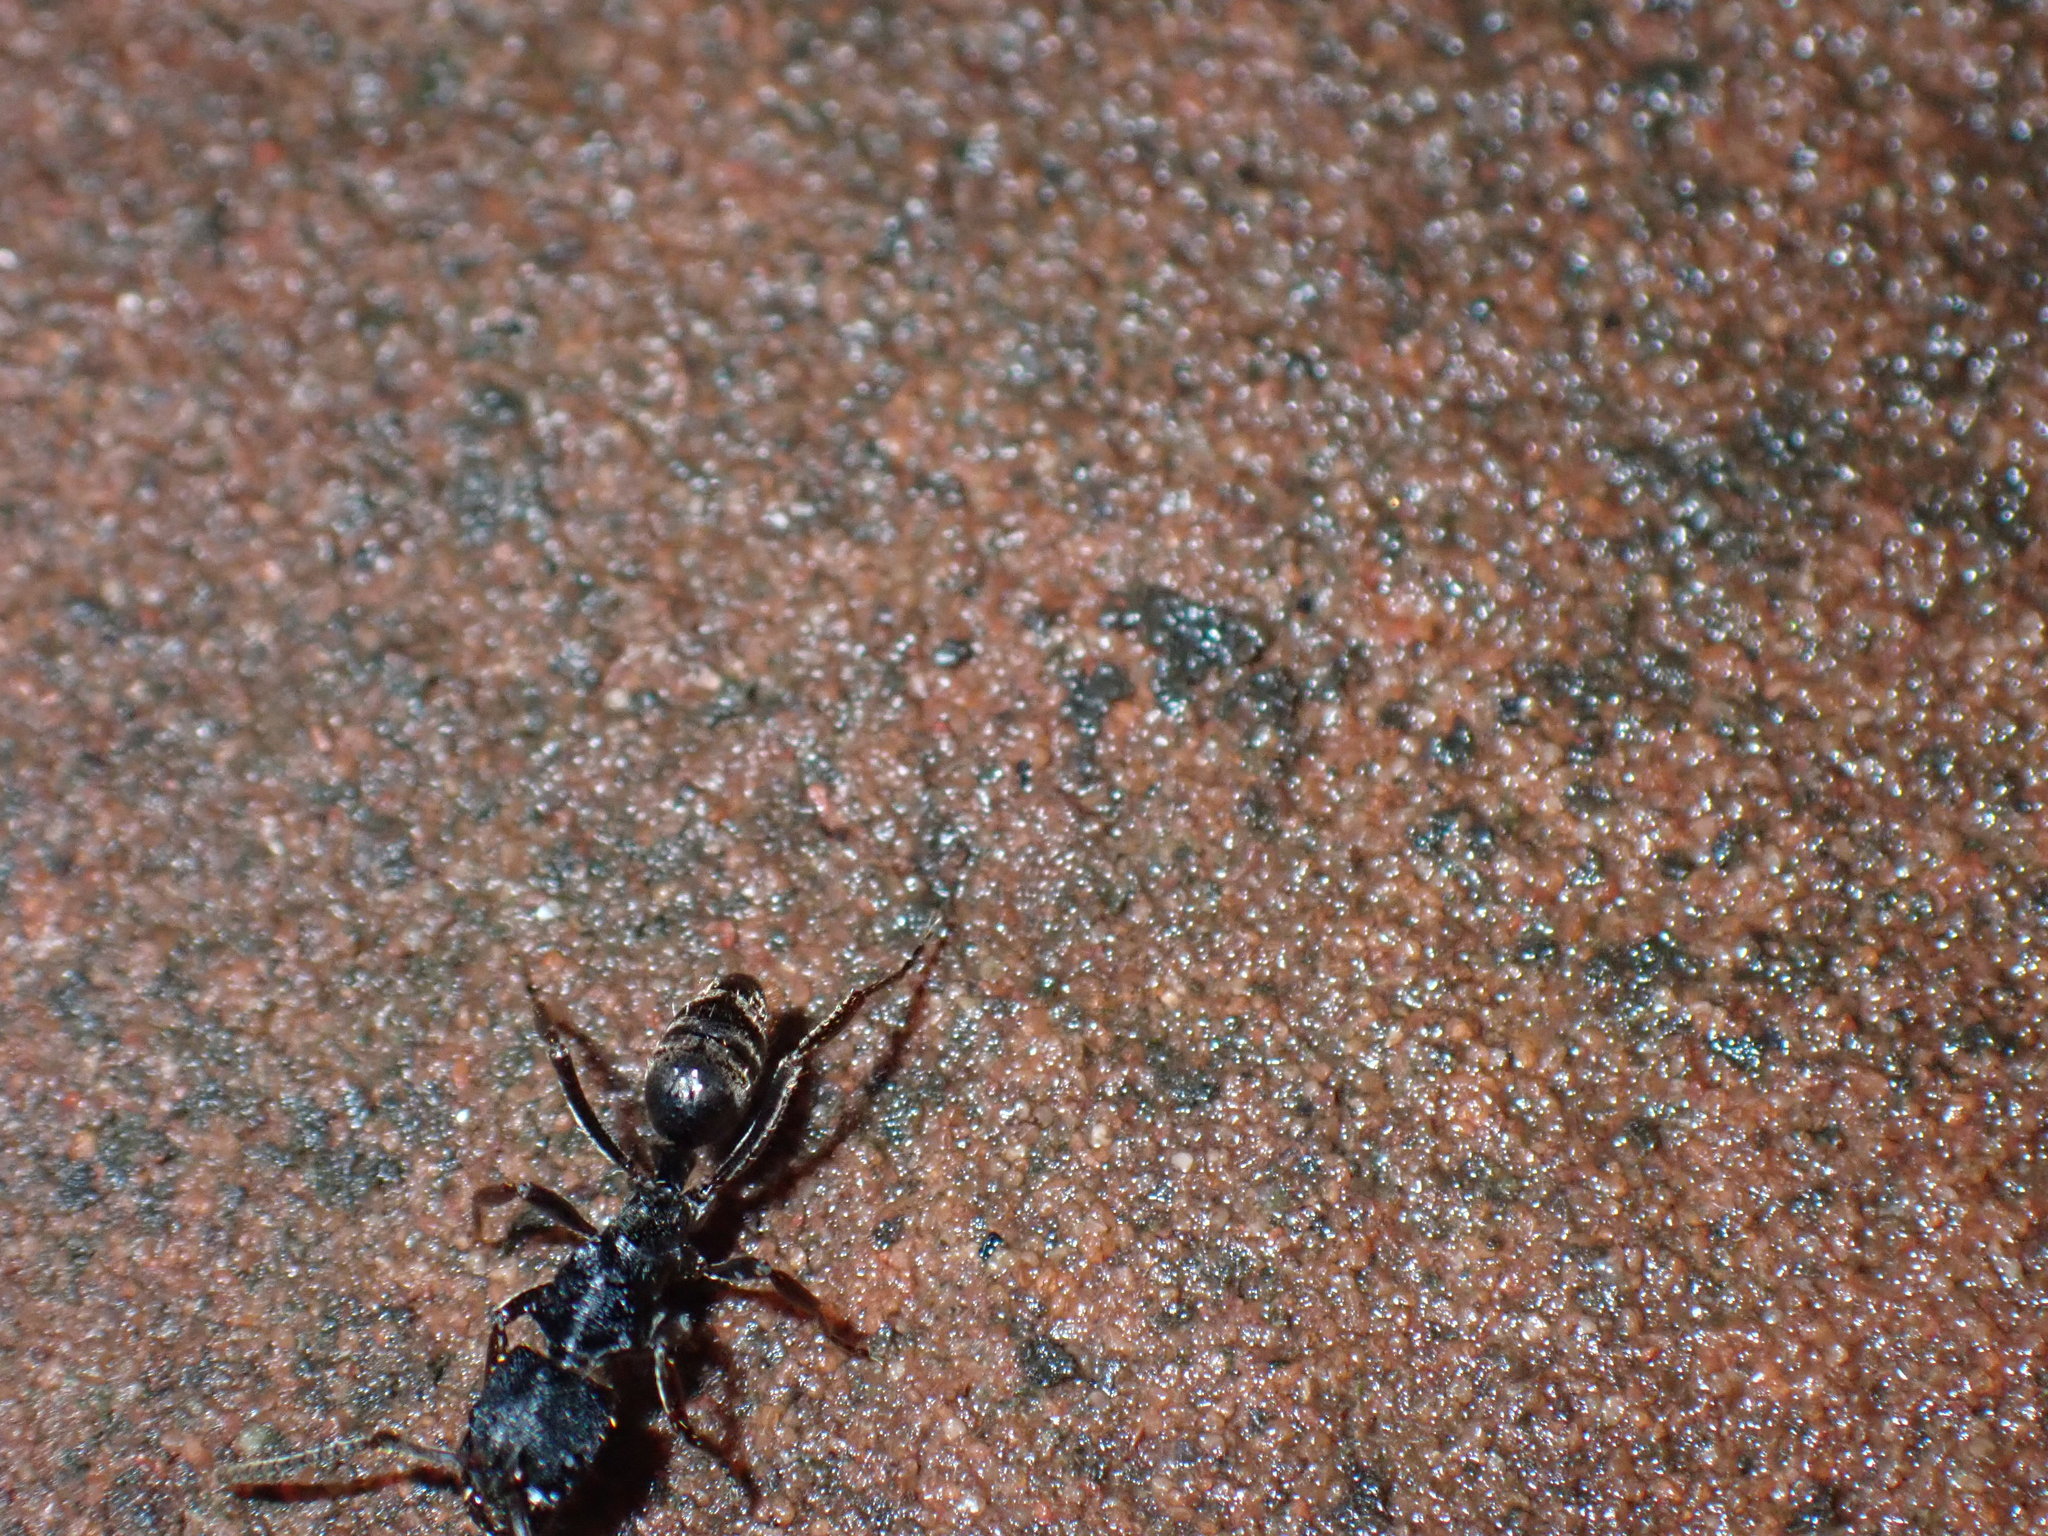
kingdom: Animalia
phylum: Arthropoda
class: Insecta
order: Hymenoptera
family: Formicidae
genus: Odontoponera
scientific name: Odontoponera denticulata
